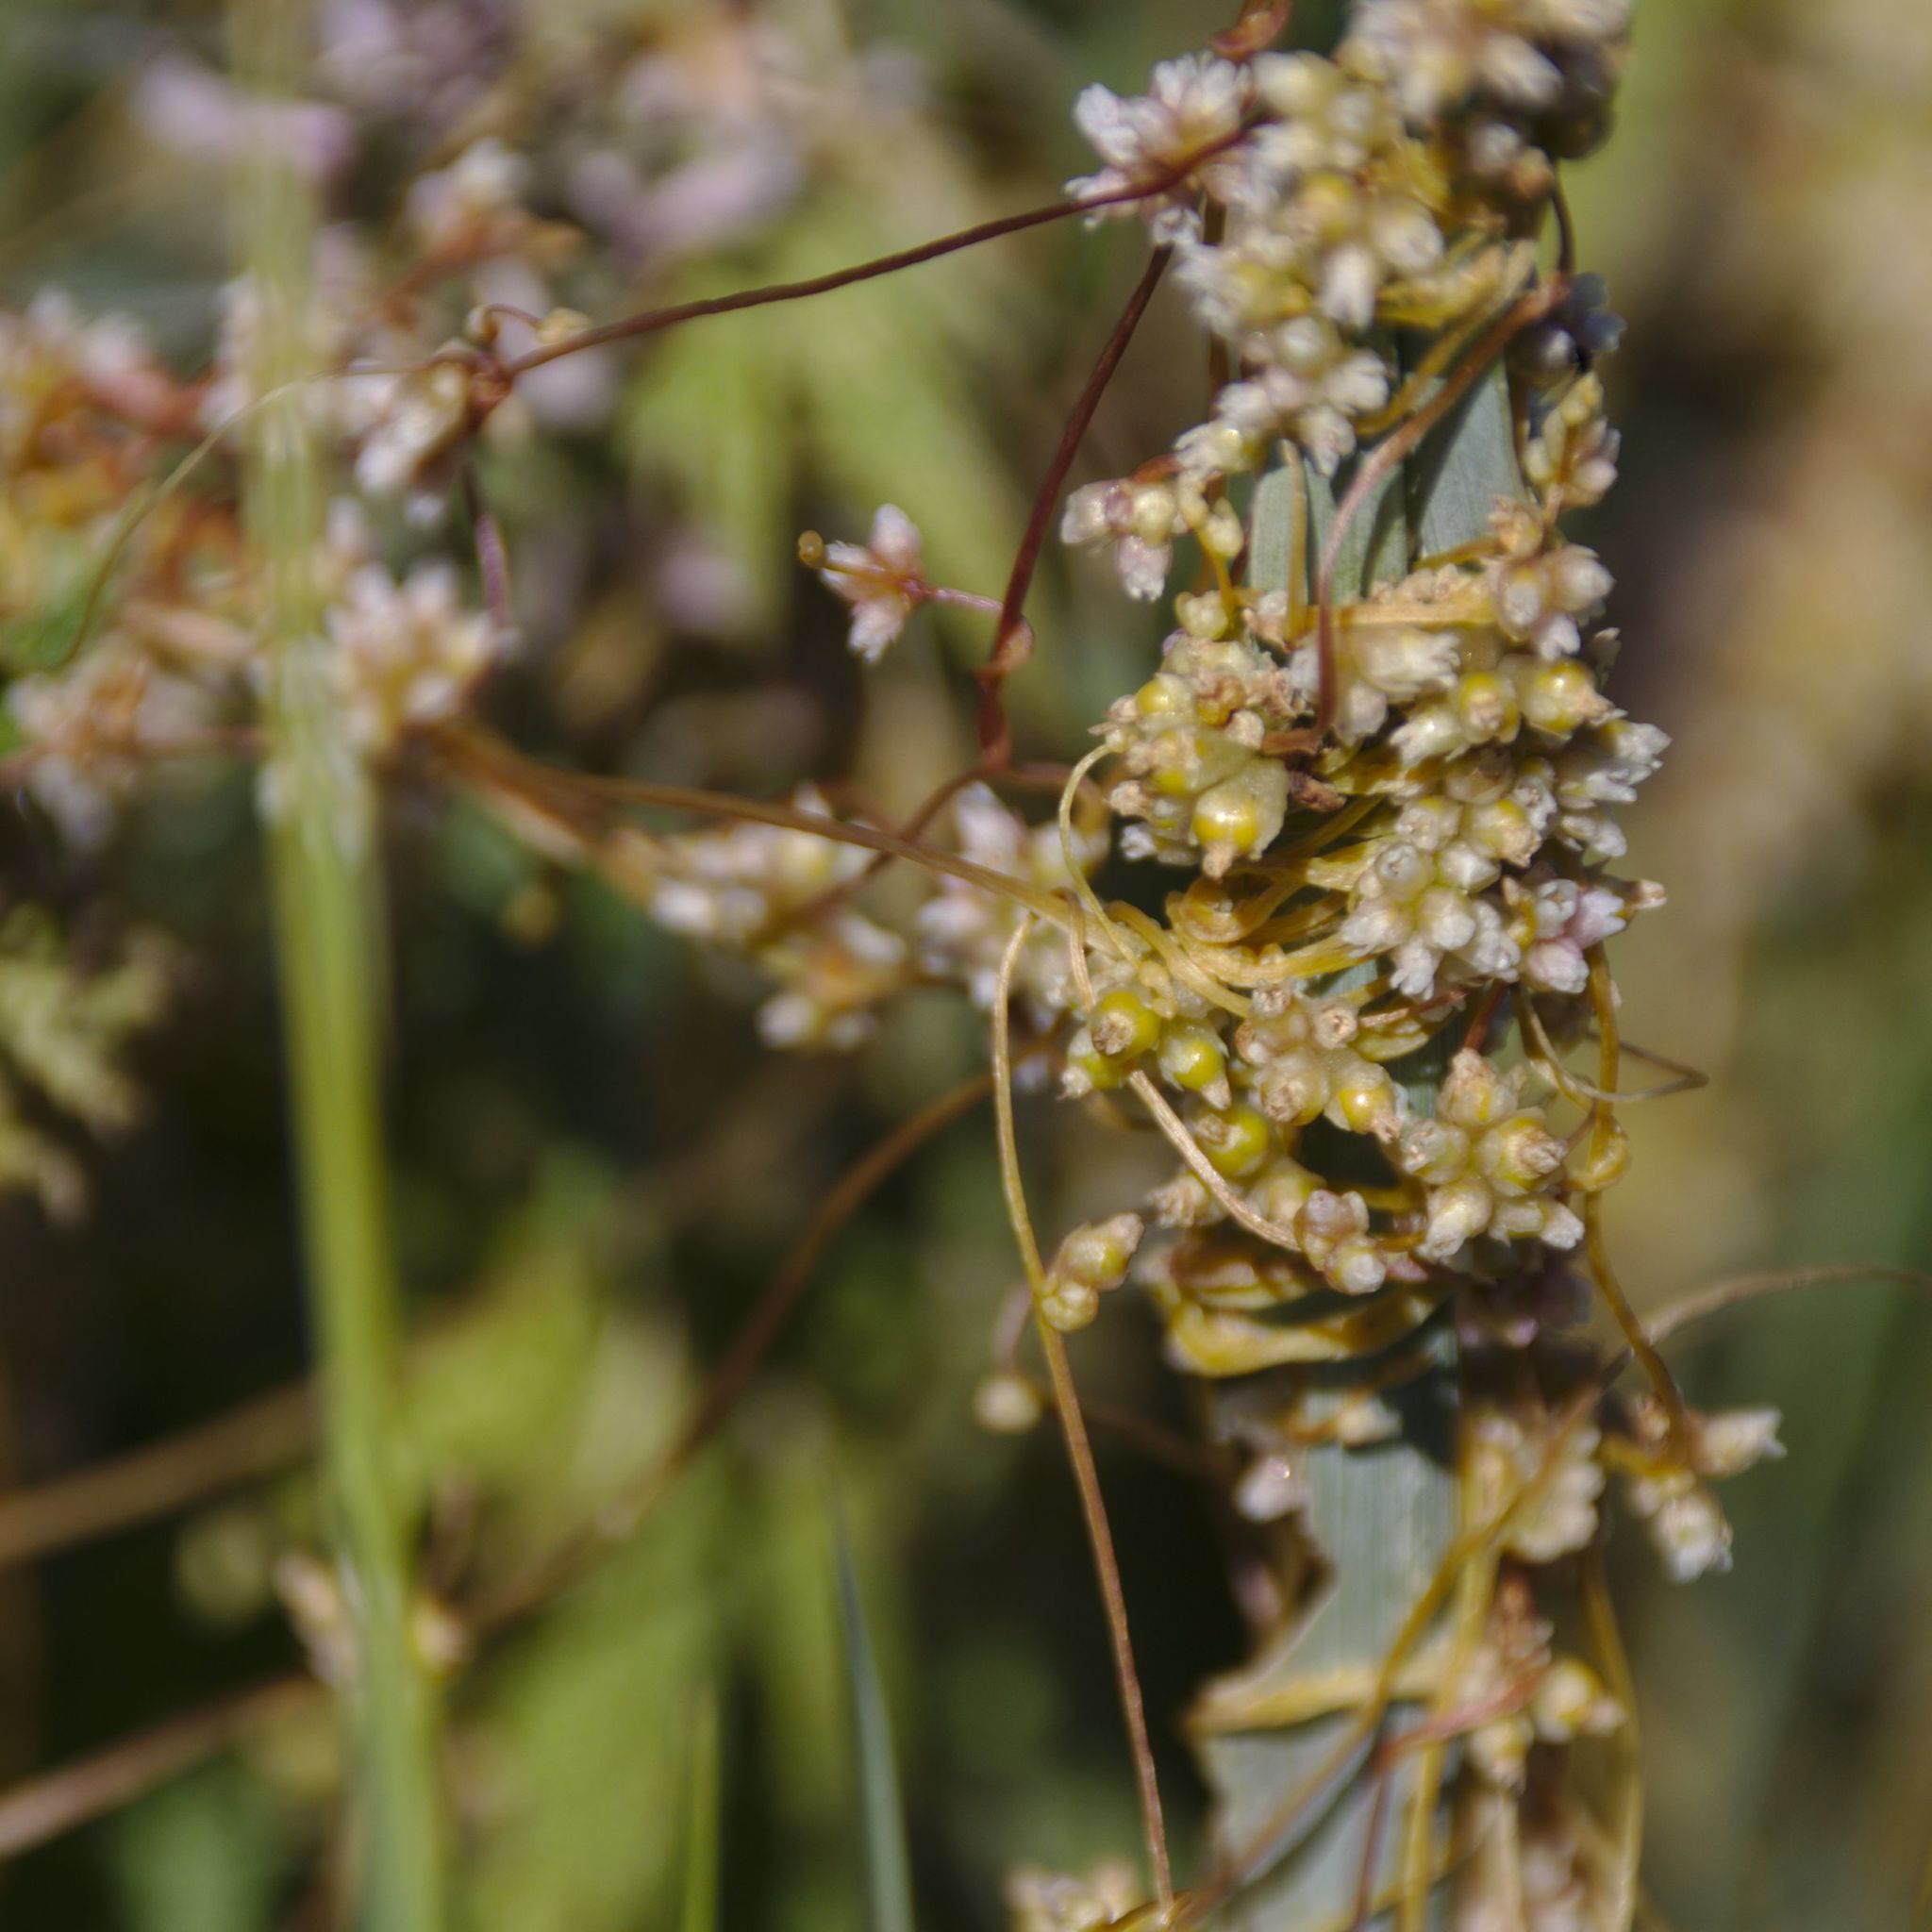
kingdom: Plantae
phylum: Tracheophyta
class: Magnoliopsida
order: Solanales
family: Convolvulaceae
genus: Cuscuta
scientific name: Cuscuta europaea
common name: Greater dodder
